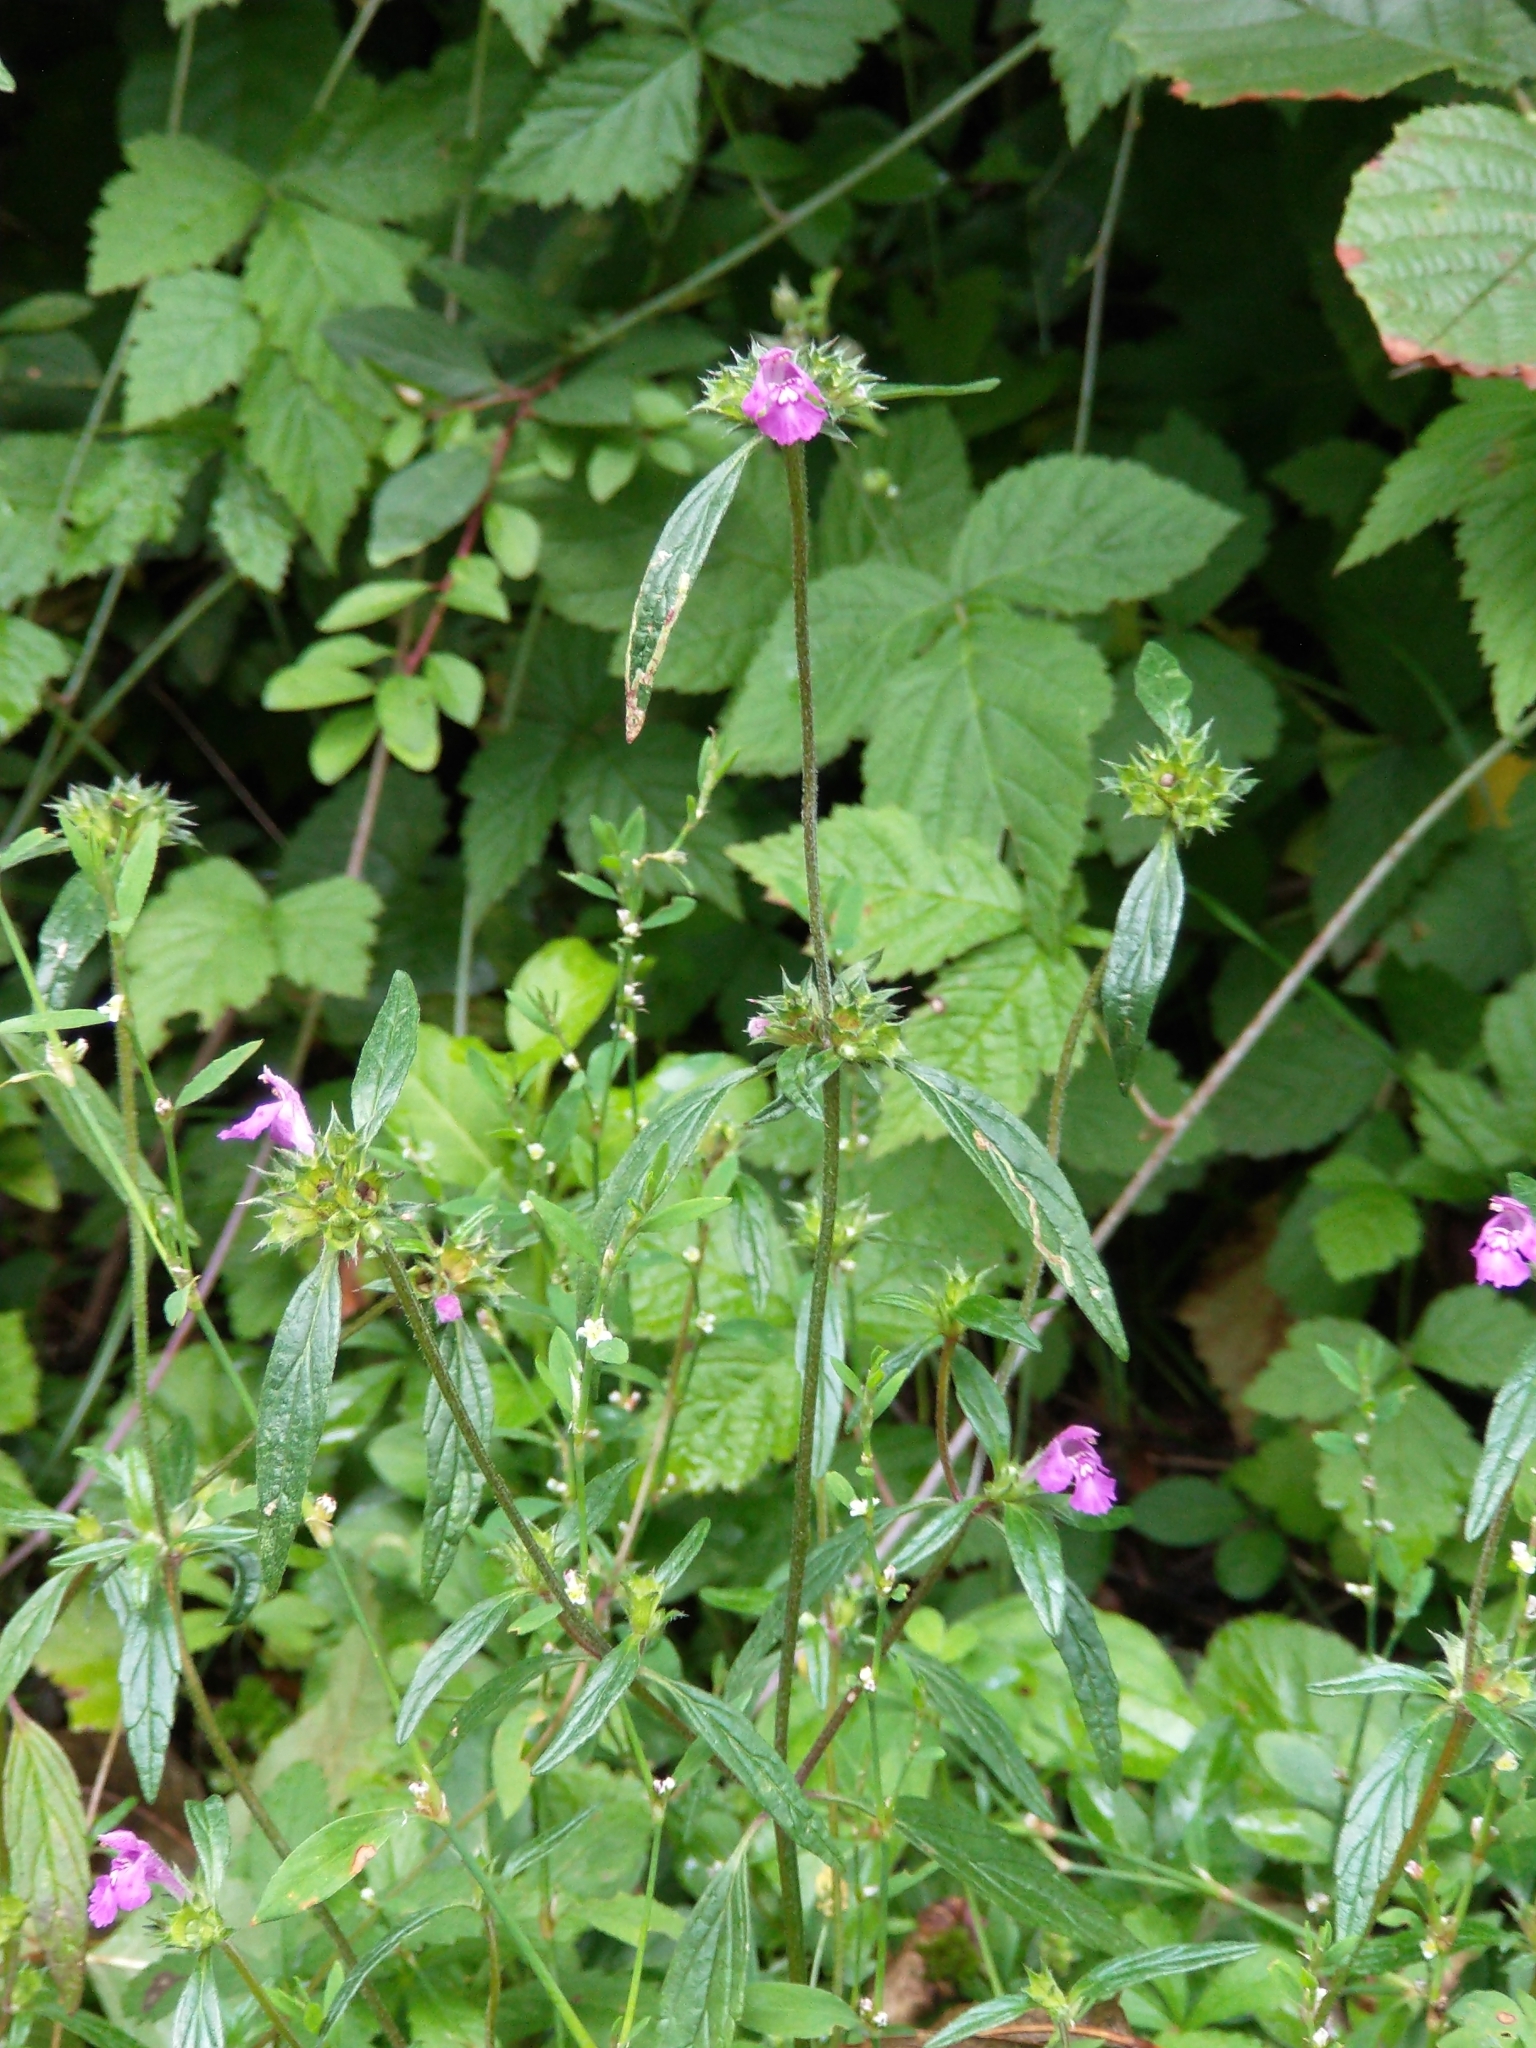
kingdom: Plantae
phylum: Tracheophyta
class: Magnoliopsida
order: Lamiales
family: Lamiaceae
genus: Galeopsis
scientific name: Galeopsis angustifolia
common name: Red hemp-nettle
